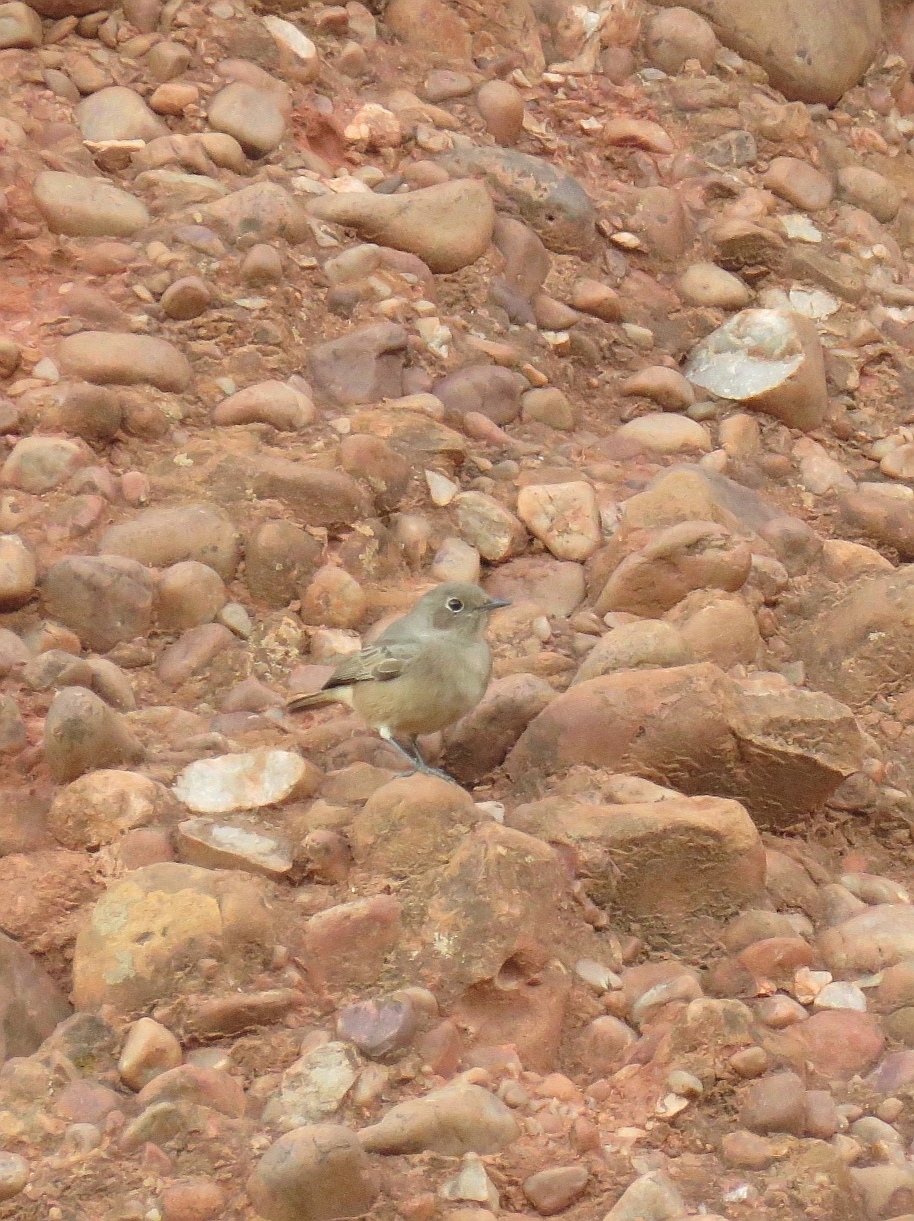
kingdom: Animalia
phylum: Chordata
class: Aves
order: Passeriformes
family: Muscicapidae
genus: Oenanthe
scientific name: Oenanthe familiaris
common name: Familiar chat
